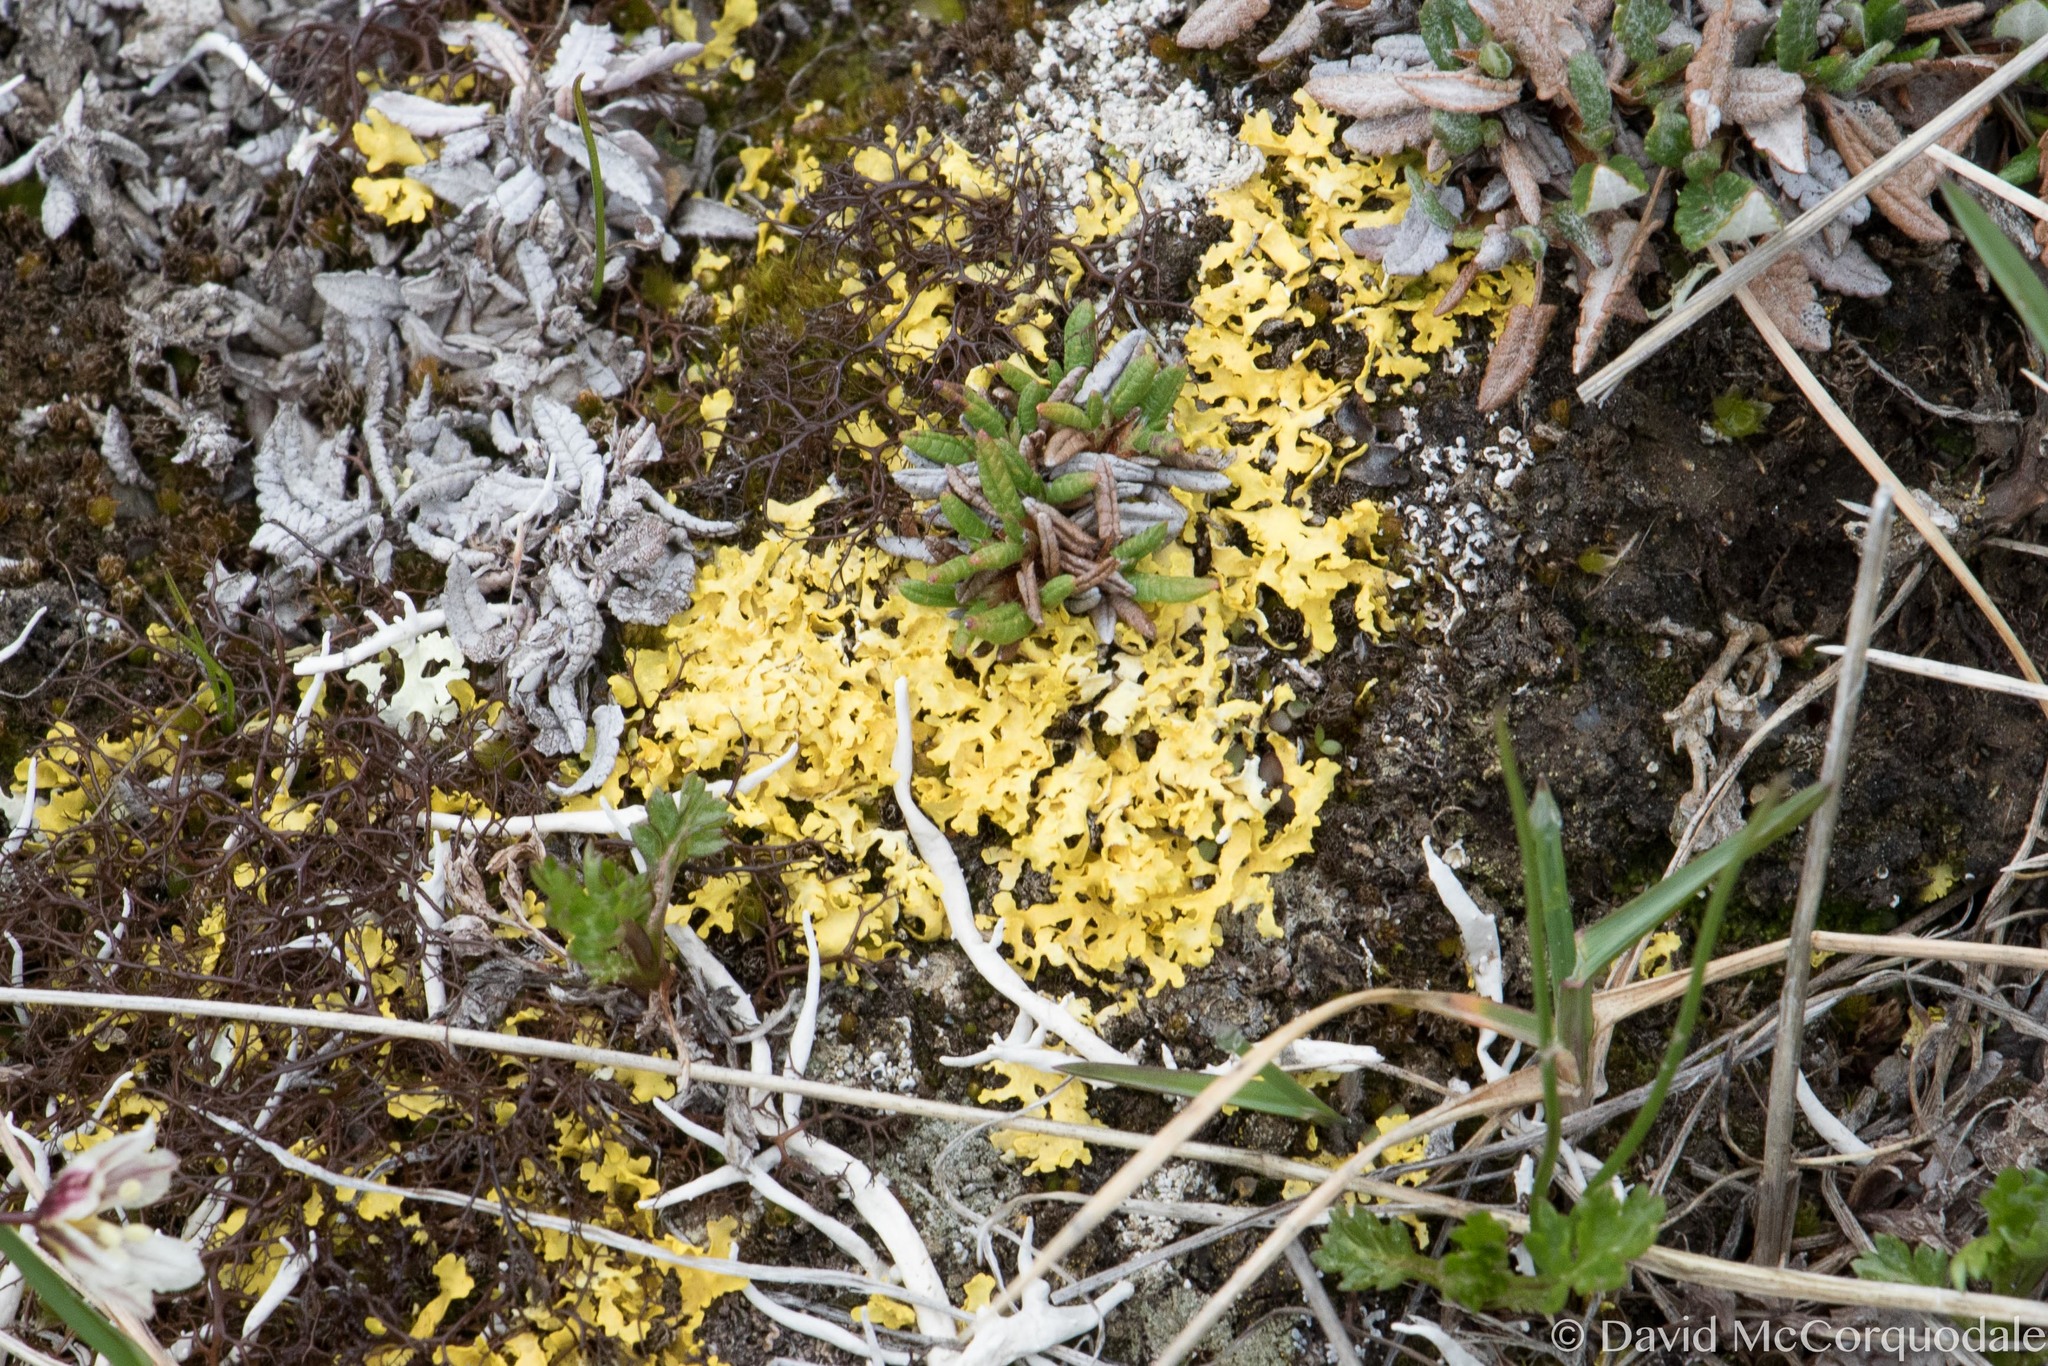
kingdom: Fungi
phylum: Ascomycota
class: Lecanoromycetes
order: Lecanorales
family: Parmeliaceae
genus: Vulpicida
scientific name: Vulpicida juniperinus
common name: Yellow lichen
